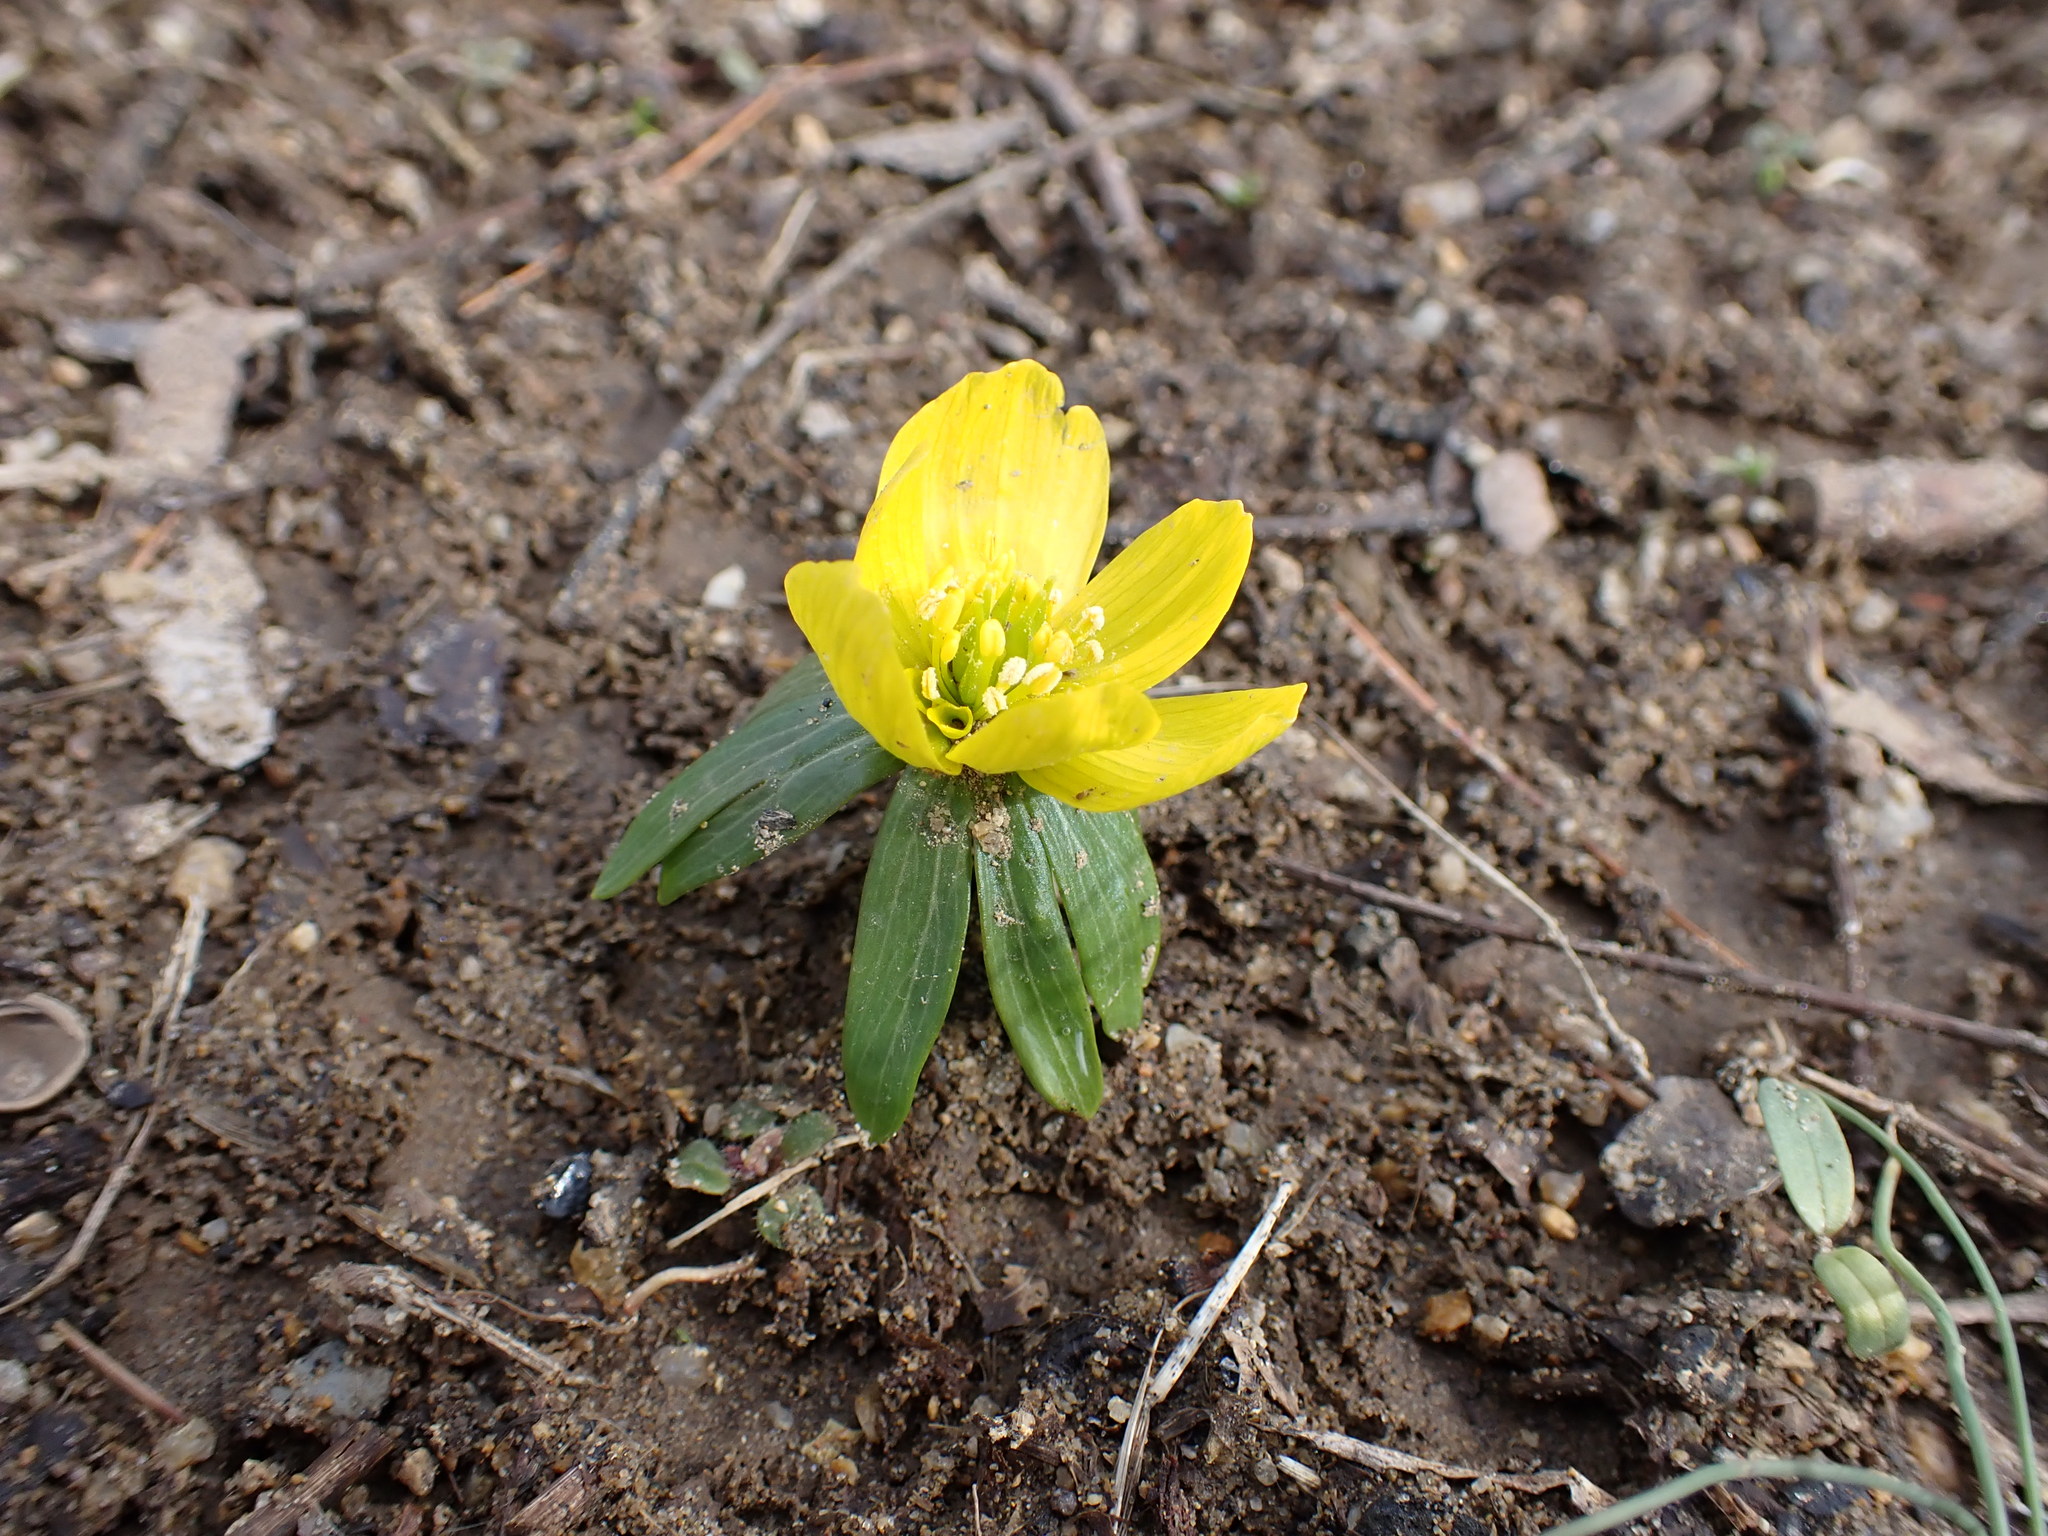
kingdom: Plantae
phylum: Tracheophyta
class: Magnoliopsida
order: Ranunculales
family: Ranunculaceae
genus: Eranthis
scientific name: Eranthis hyemalis
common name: Winter aconite
